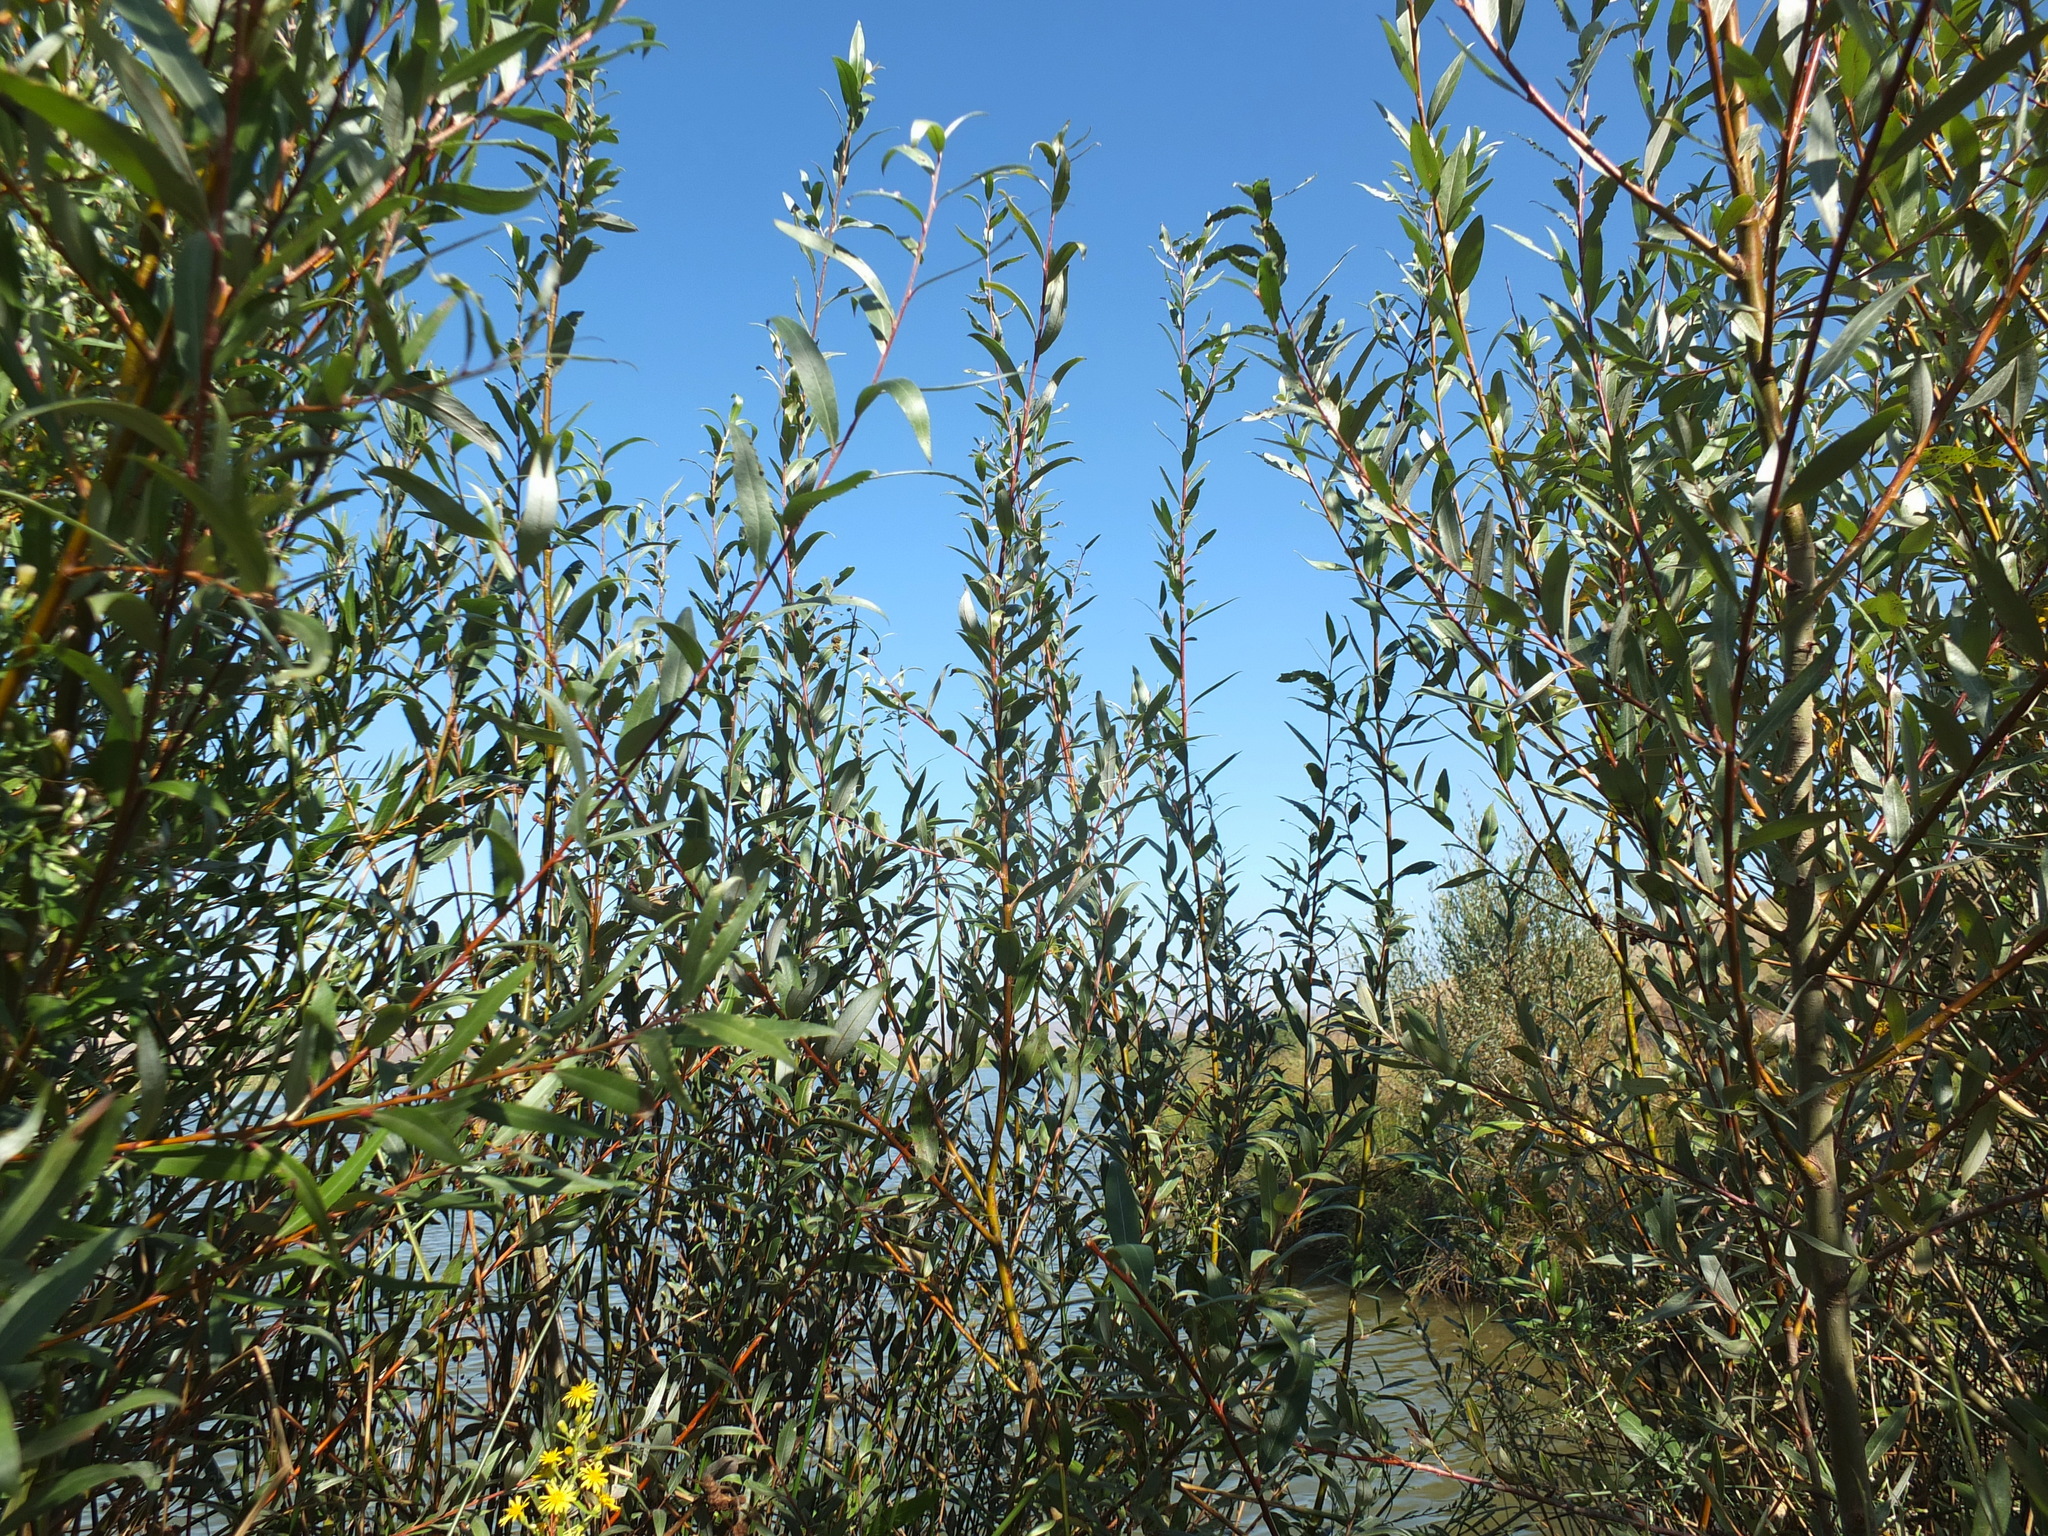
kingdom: Plantae
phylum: Tracheophyta
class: Magnoliopsida
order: Malpighiales
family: Salicaceae
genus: Salix
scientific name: Salix alba
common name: White willow
